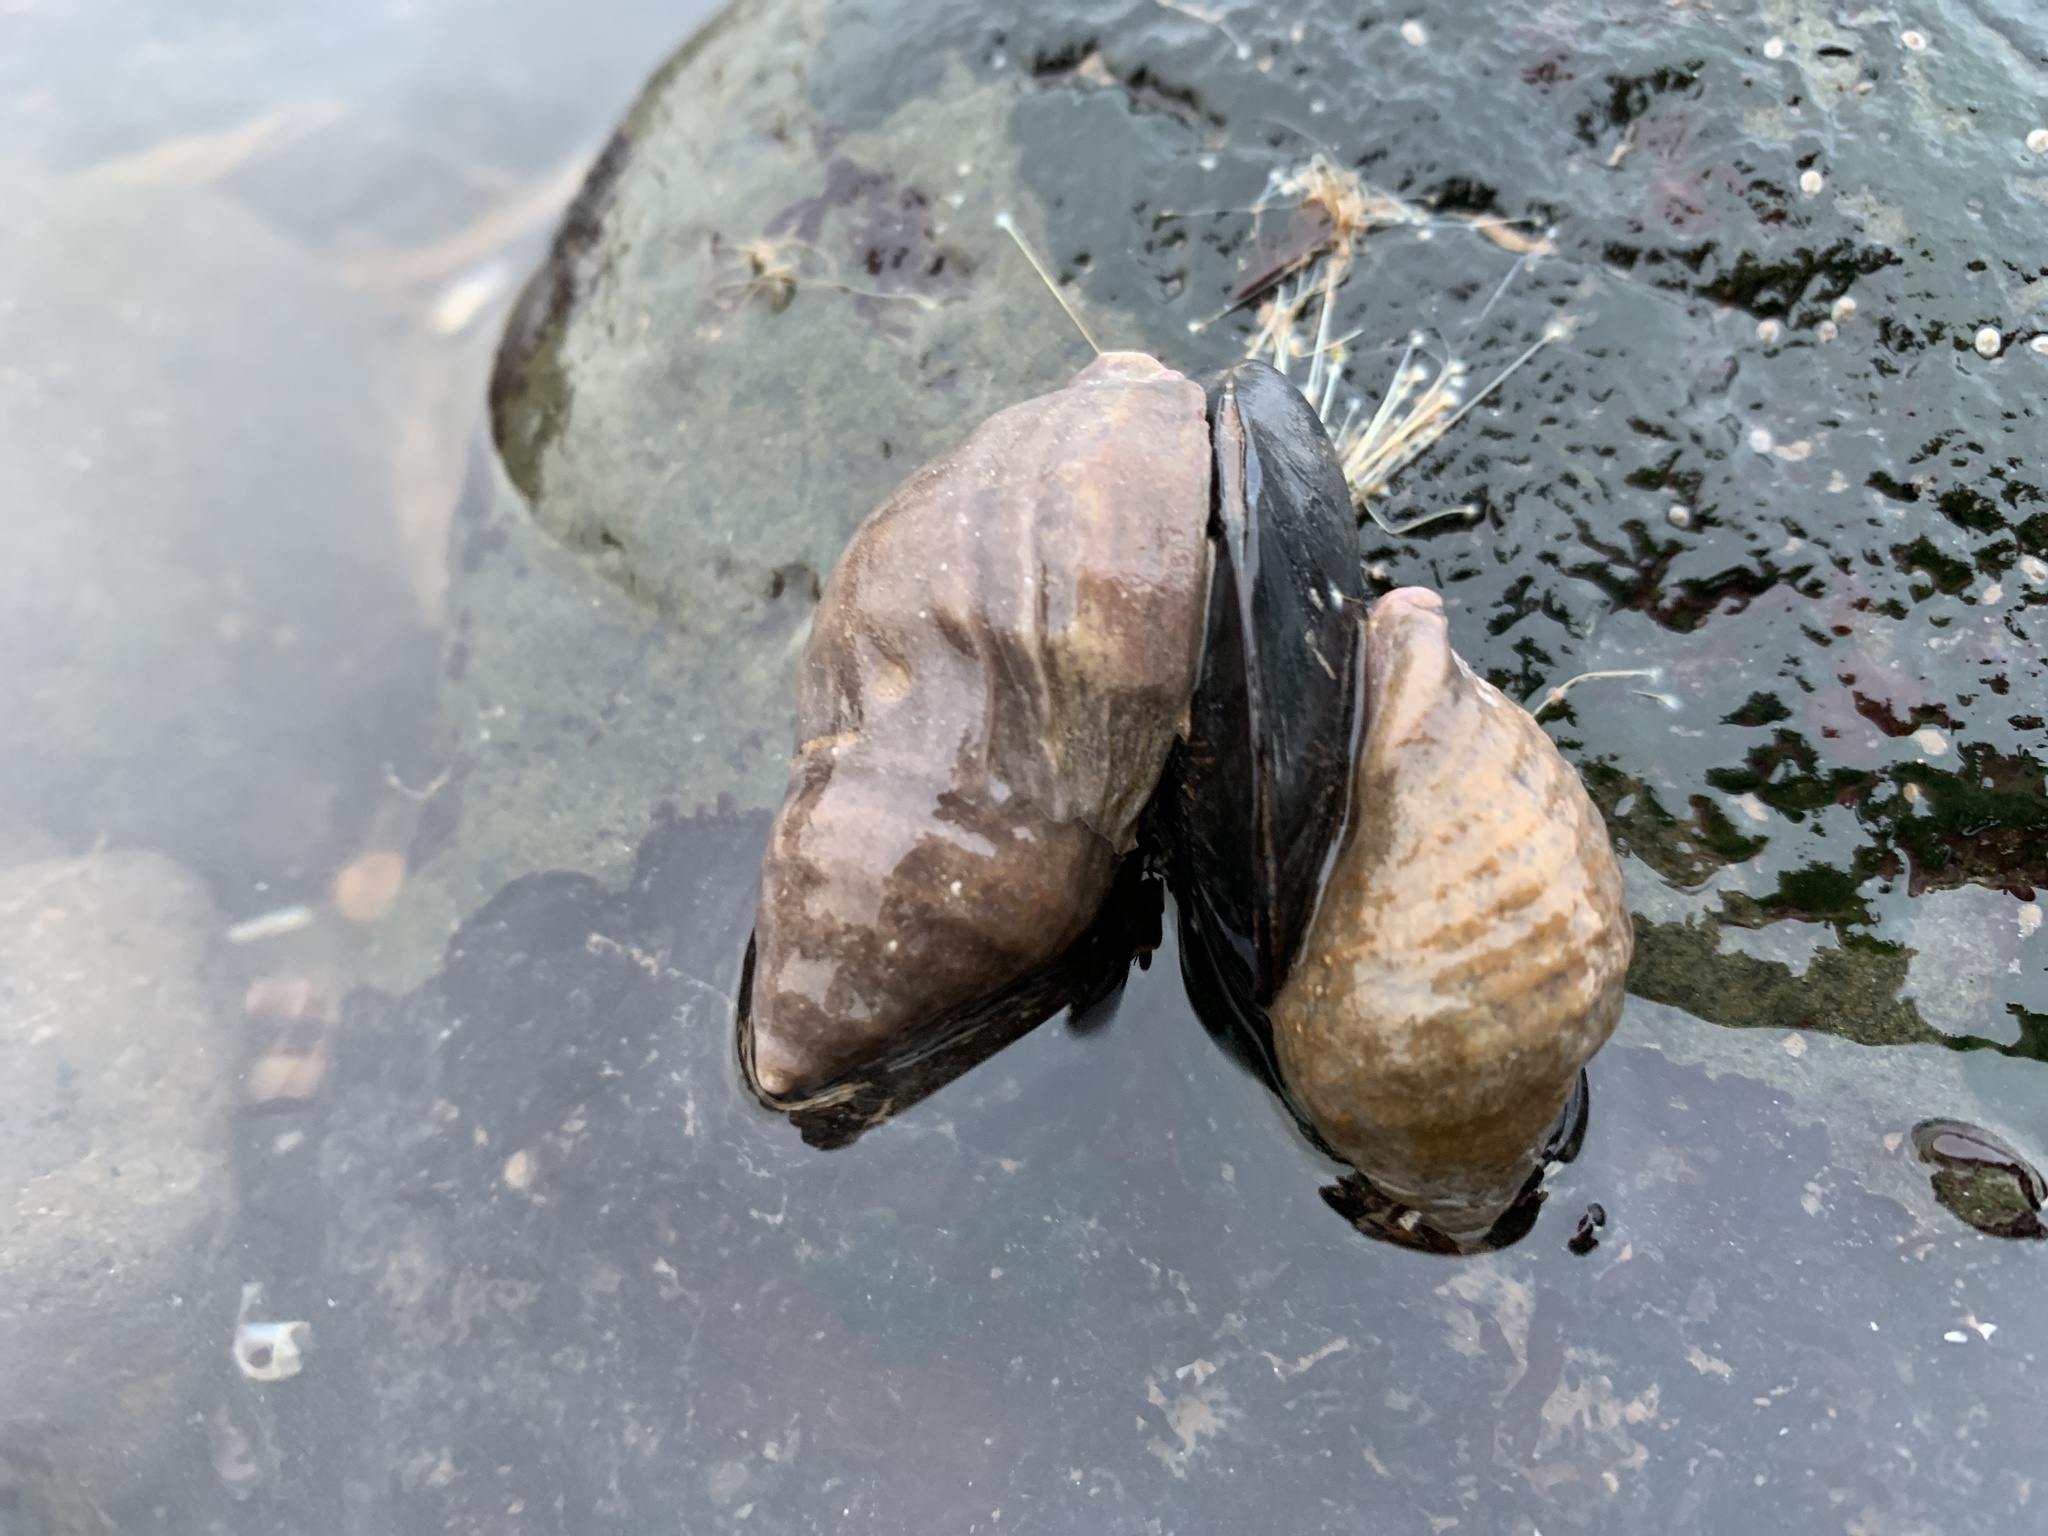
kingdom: Animalia
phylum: Mollusca
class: Gastropoda
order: Neogastropoda
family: Muricidae
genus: Nucella
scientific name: Nucella lapillus
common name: Dog whelk
